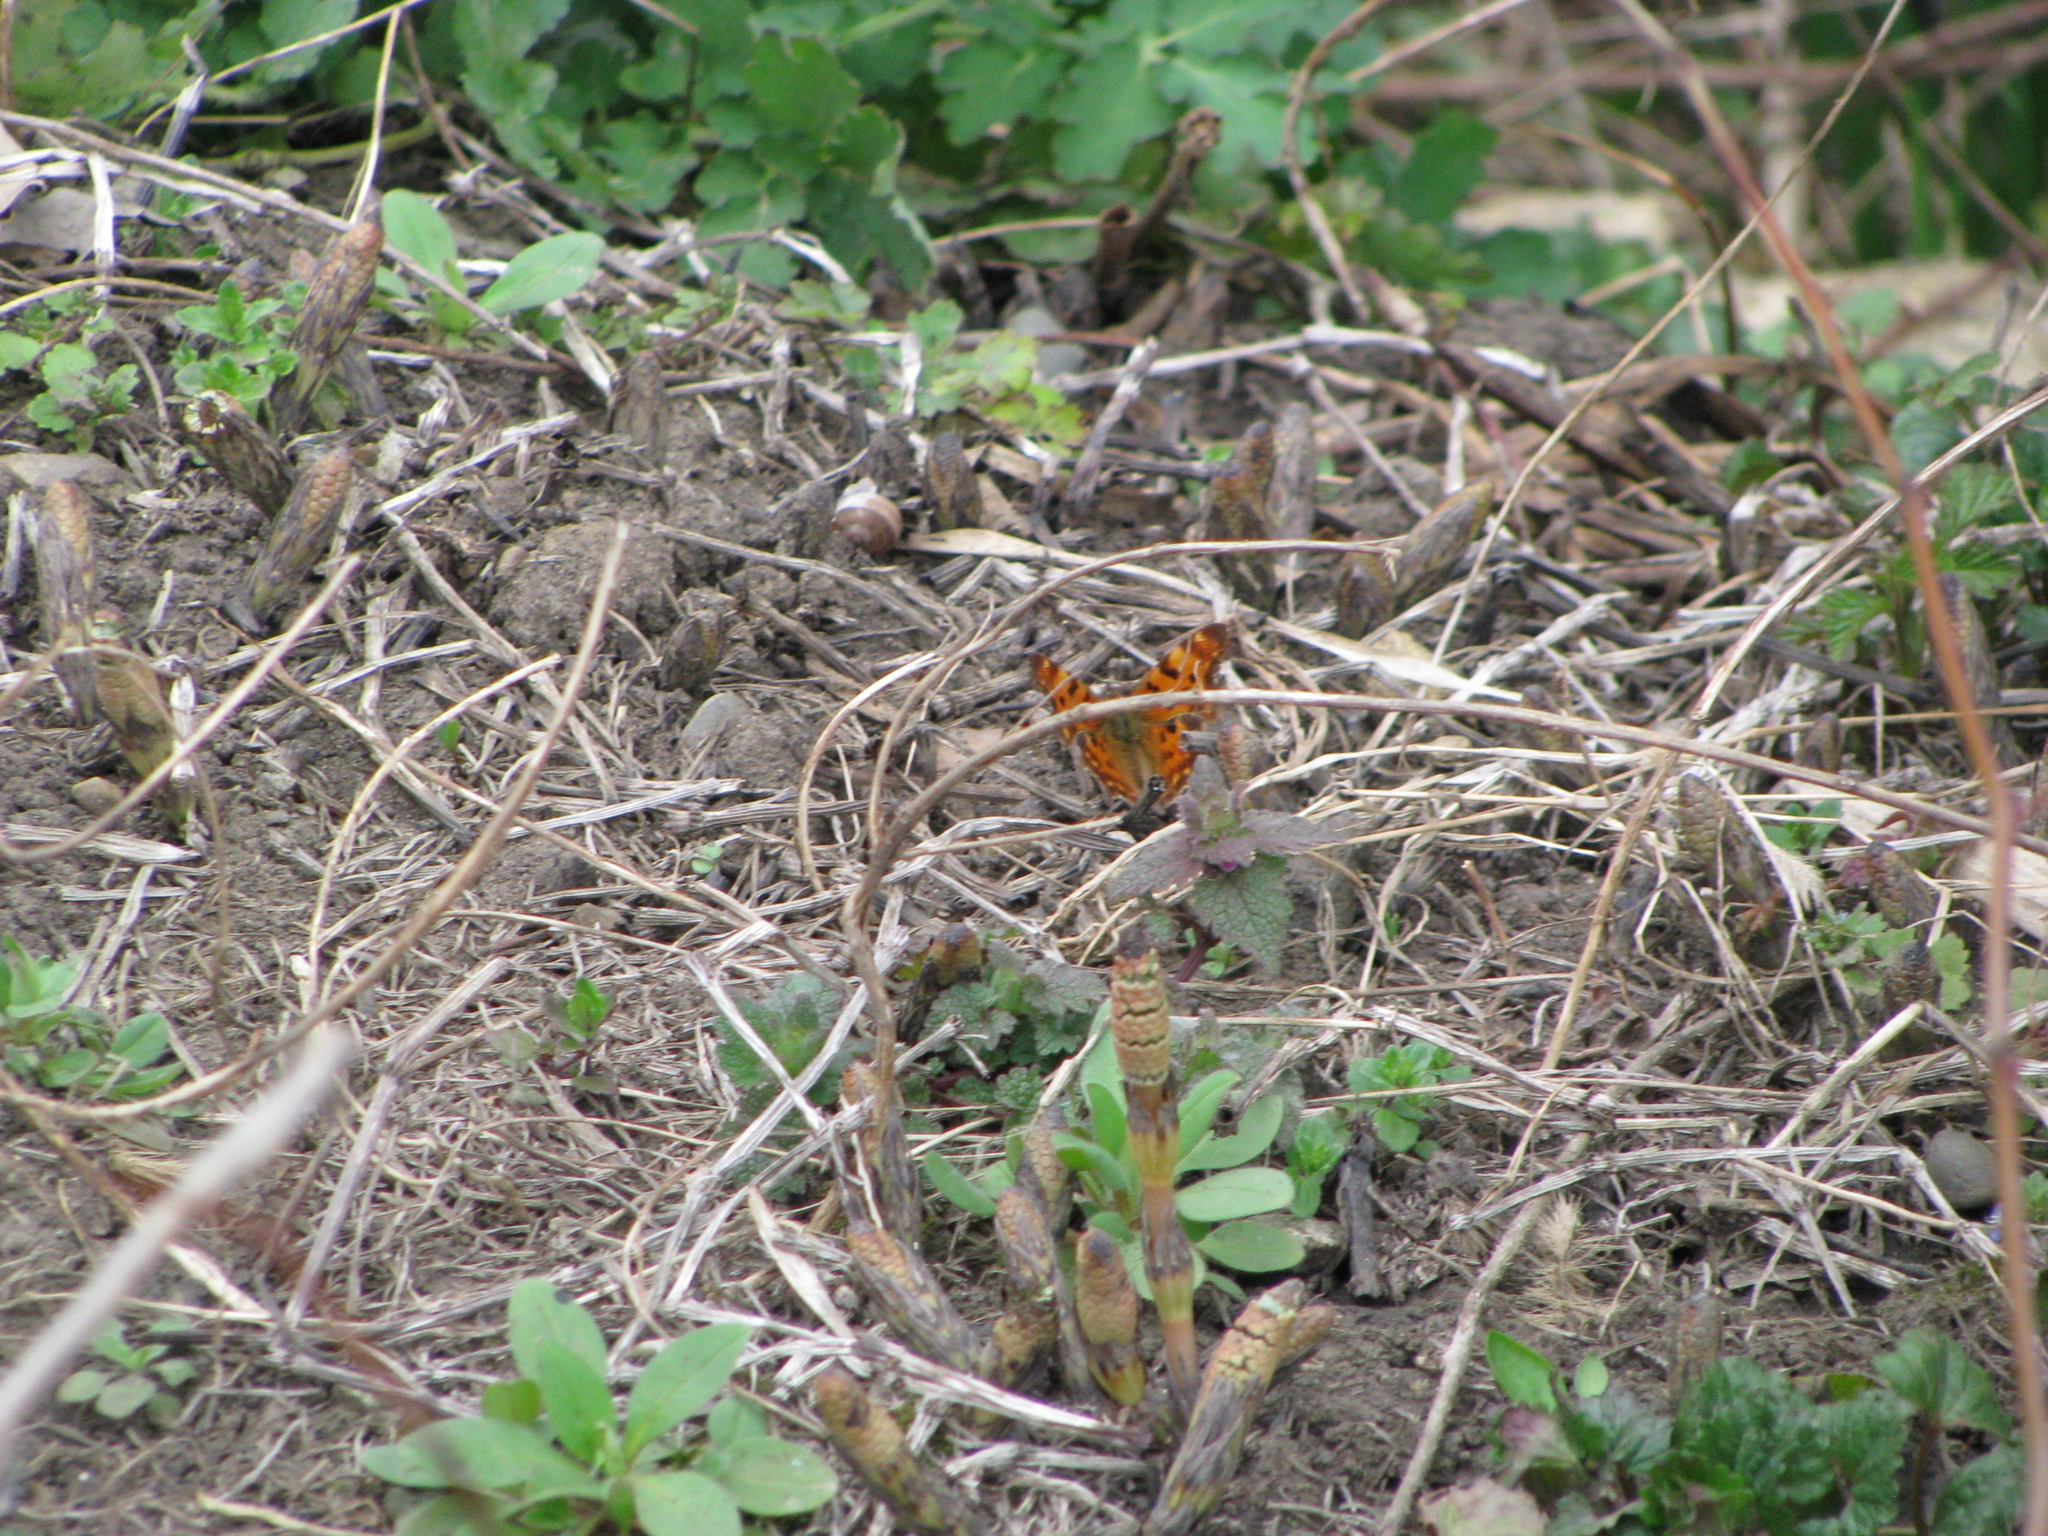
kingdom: Animalia
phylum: Arthropoda
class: Insecta
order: Lepidoptera
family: Nymphalidae
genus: Polygonia
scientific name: Polygonia c-album
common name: Comma
